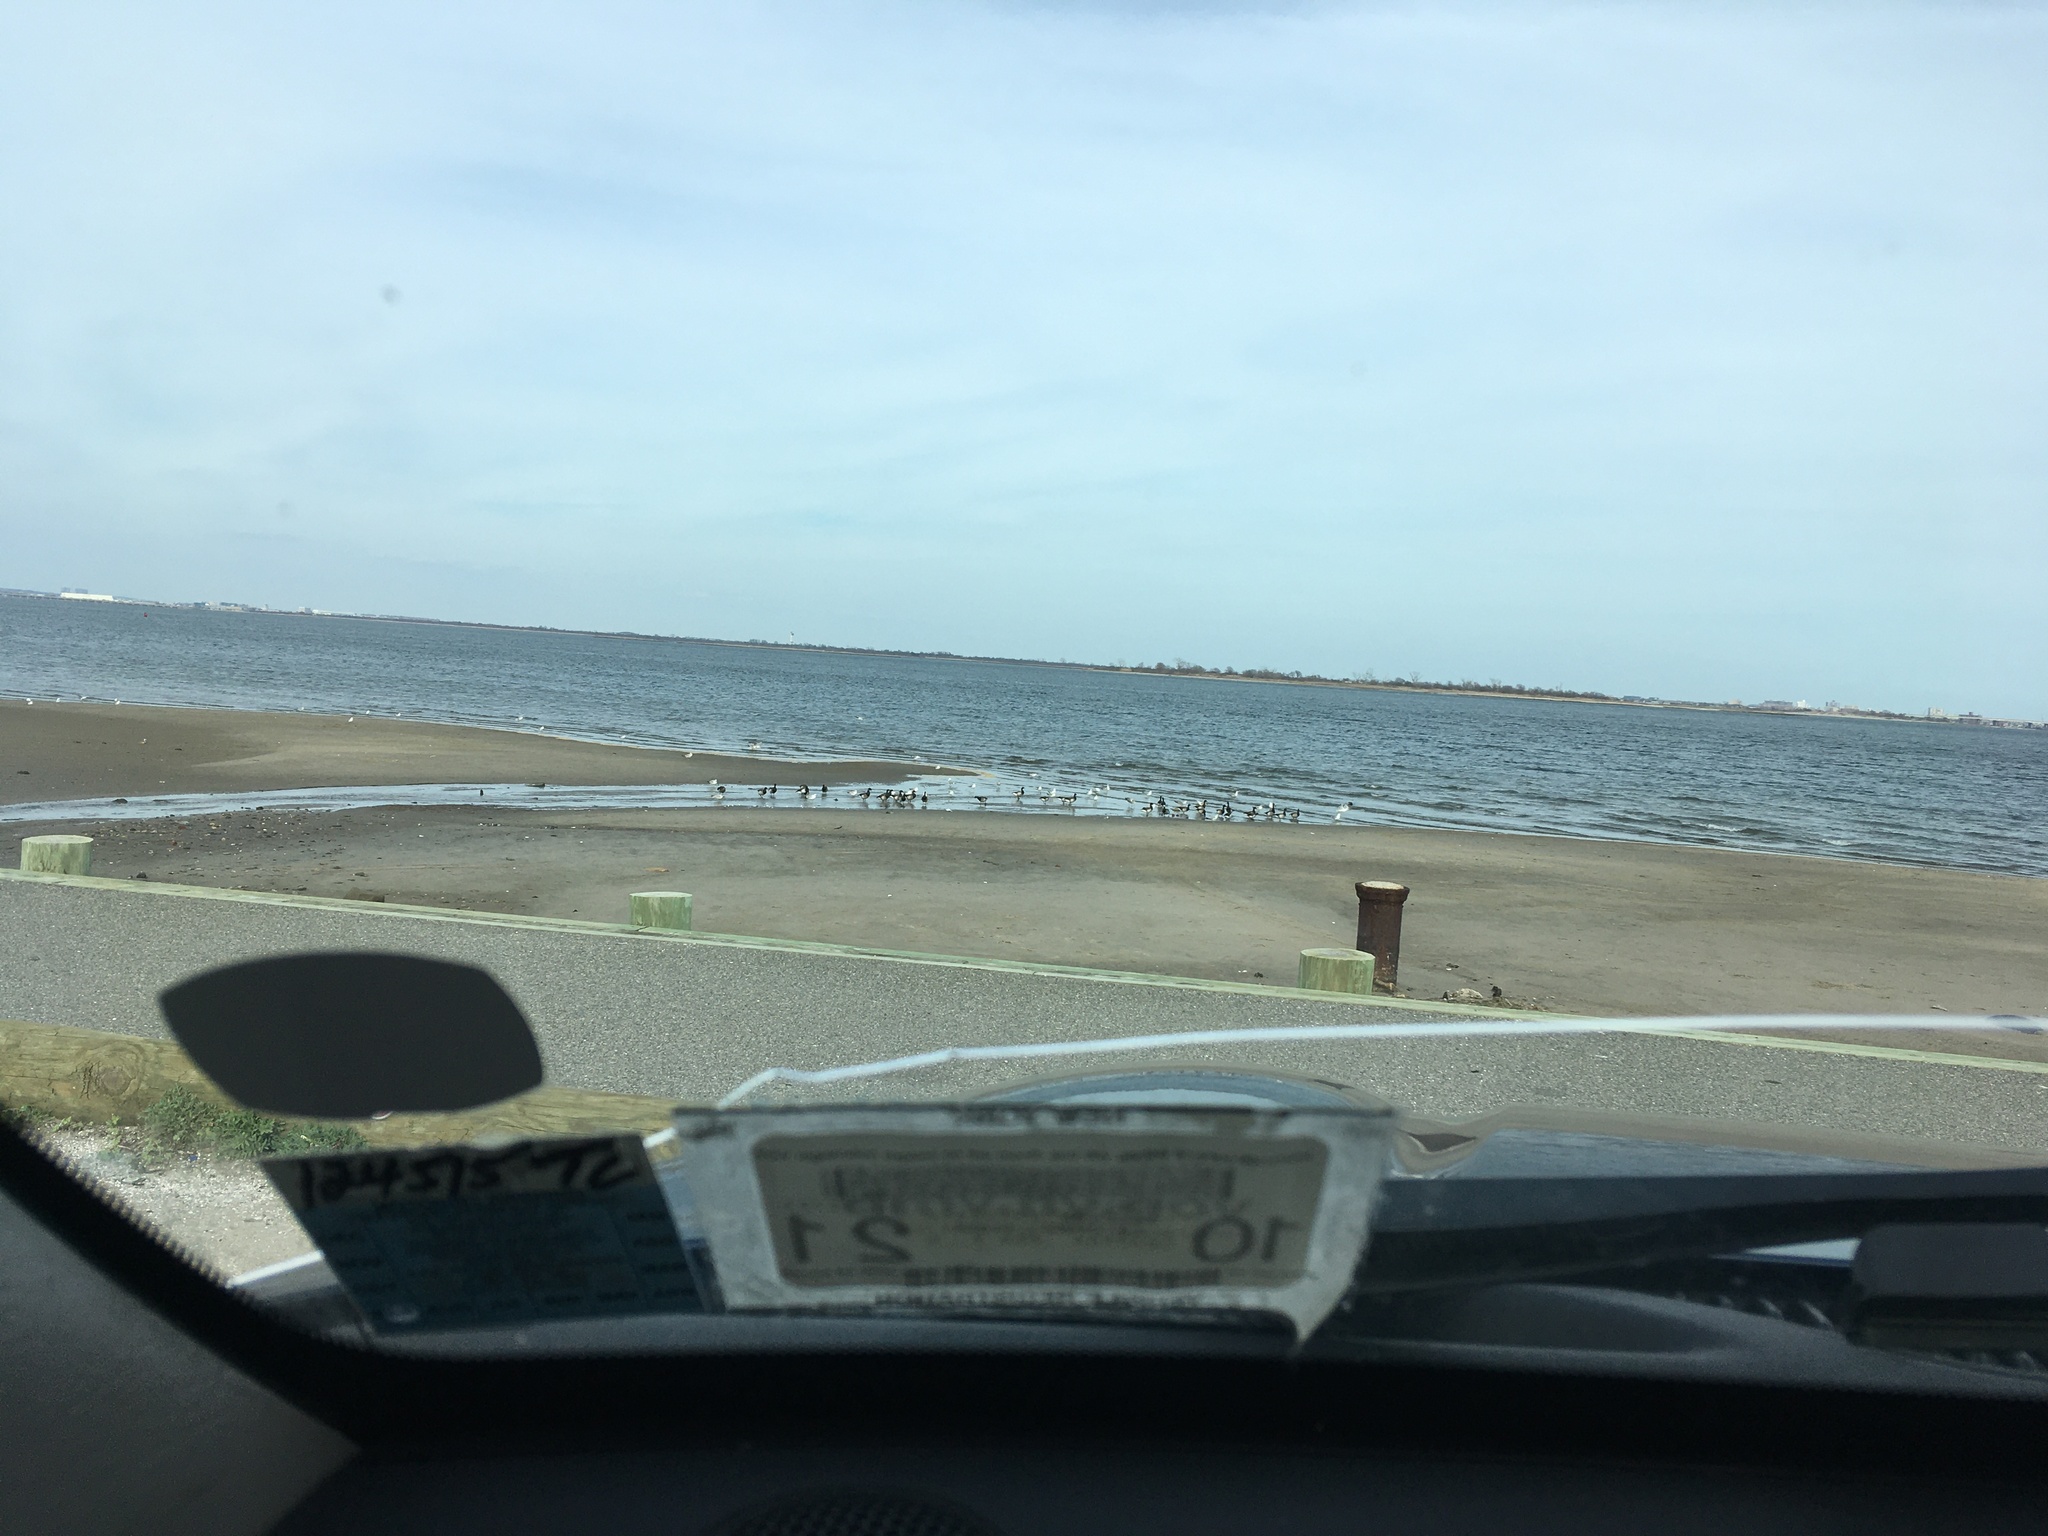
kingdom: Animalia
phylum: Chordata
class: Aves
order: Anseriformes
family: Anatidae
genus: Branta
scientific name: Branta bernicla
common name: Brant goose
